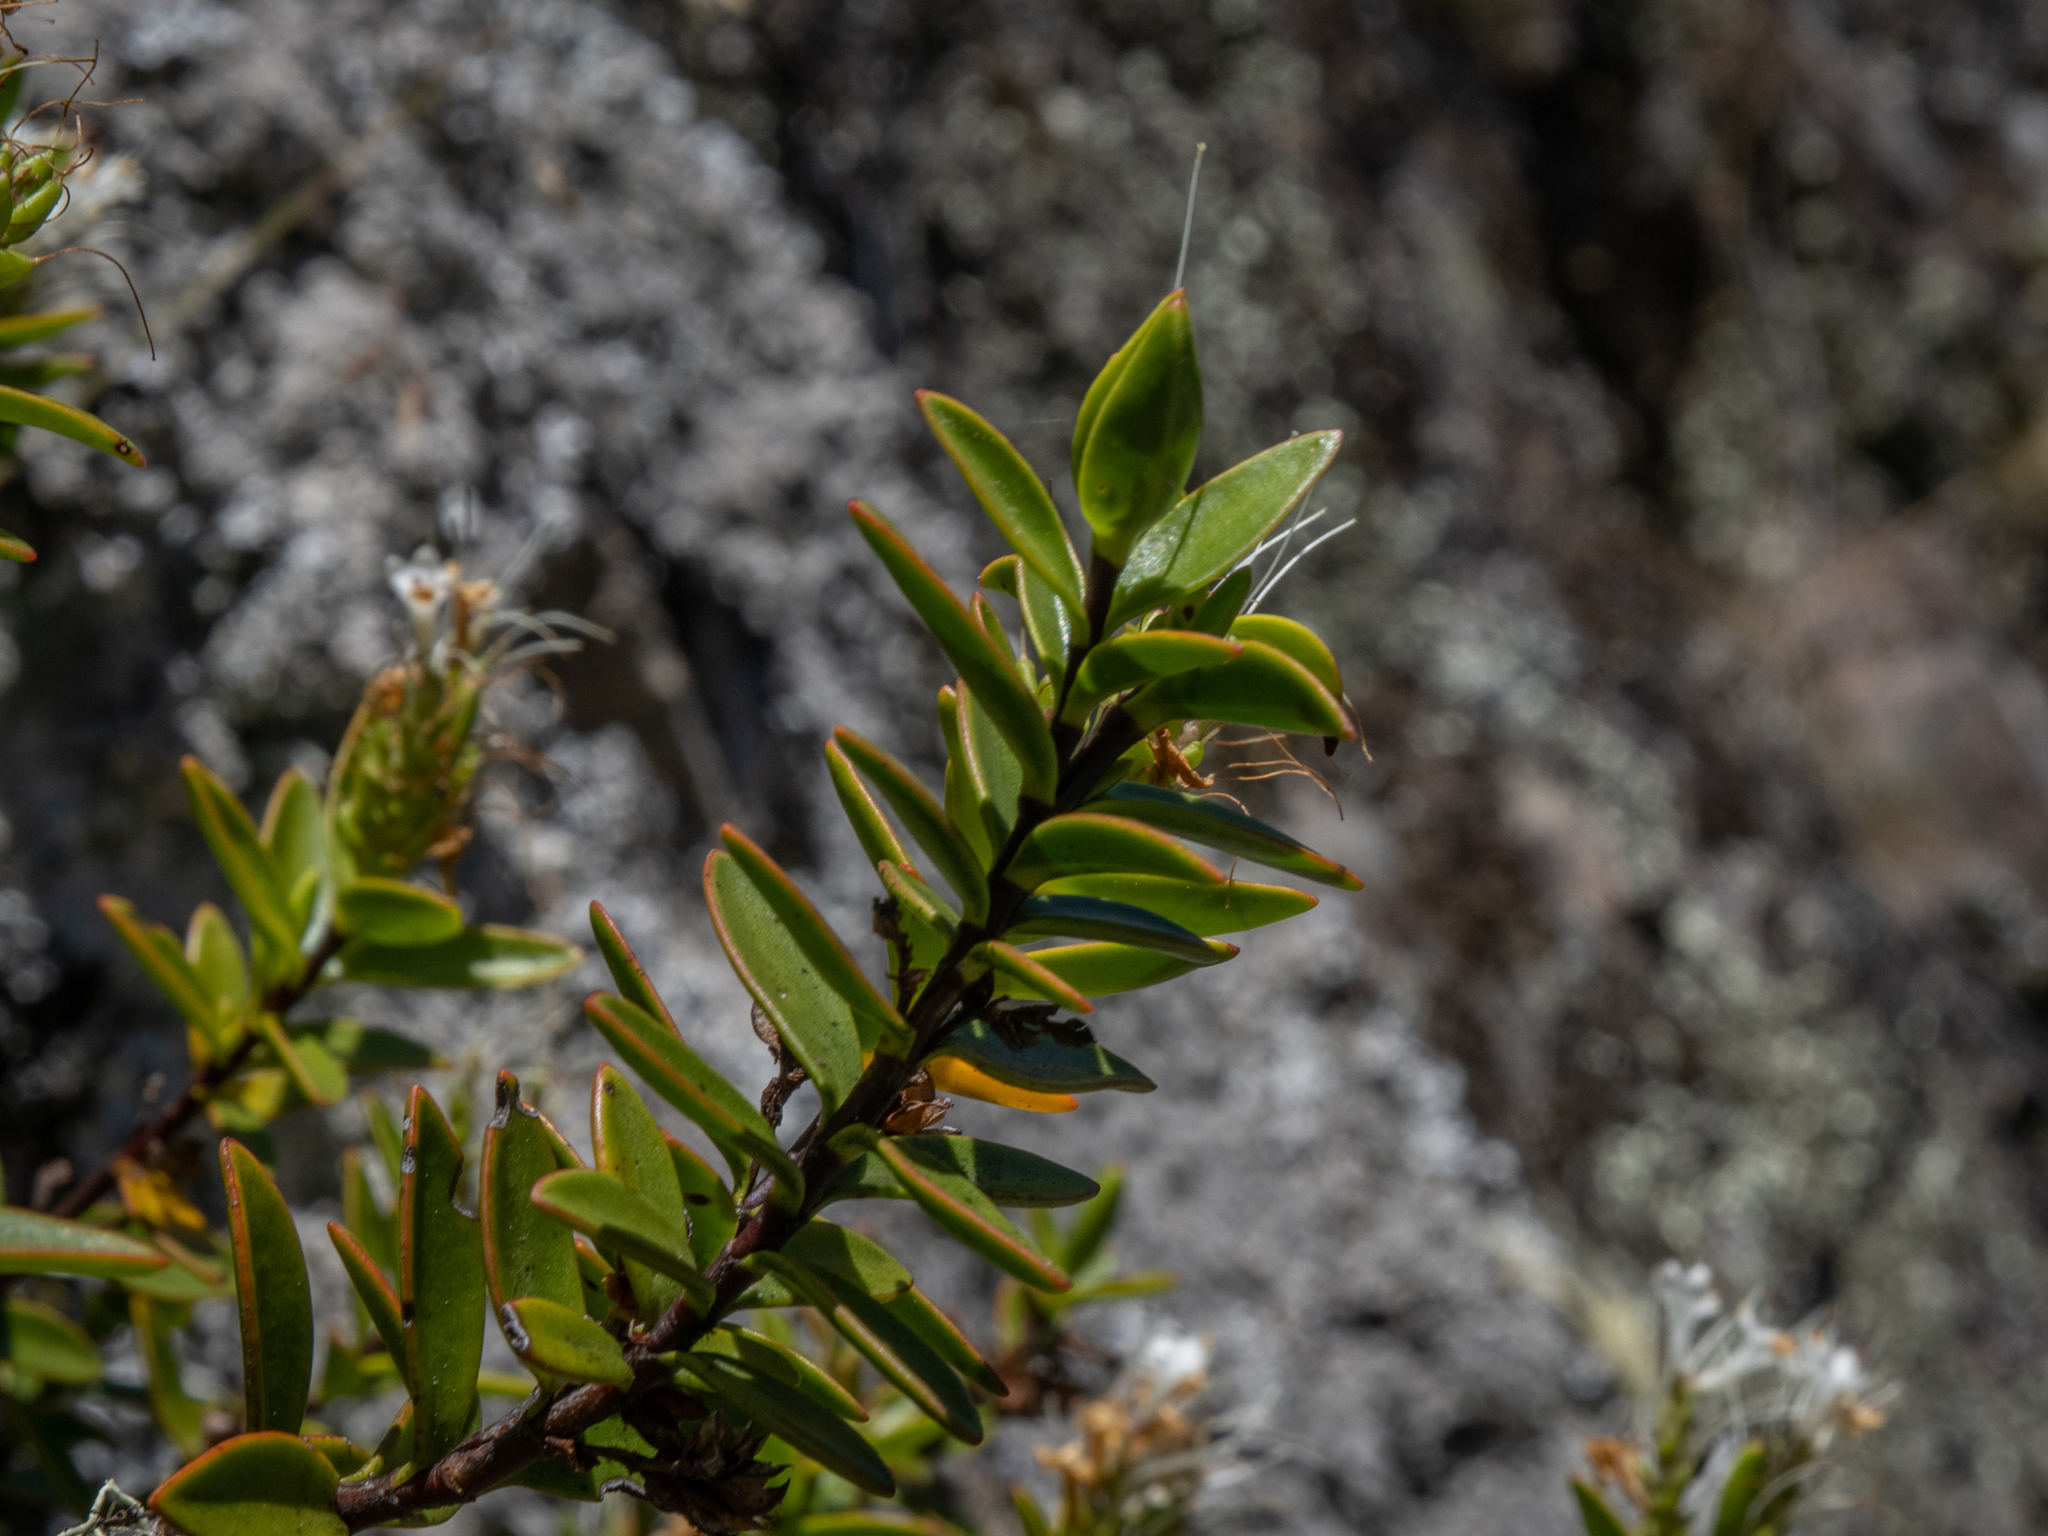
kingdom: Plantae
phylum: Tracheophyta
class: Magnoliopsida
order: Lamiales
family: Plantaginaceae
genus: Veronica
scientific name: Veronica decumbens
